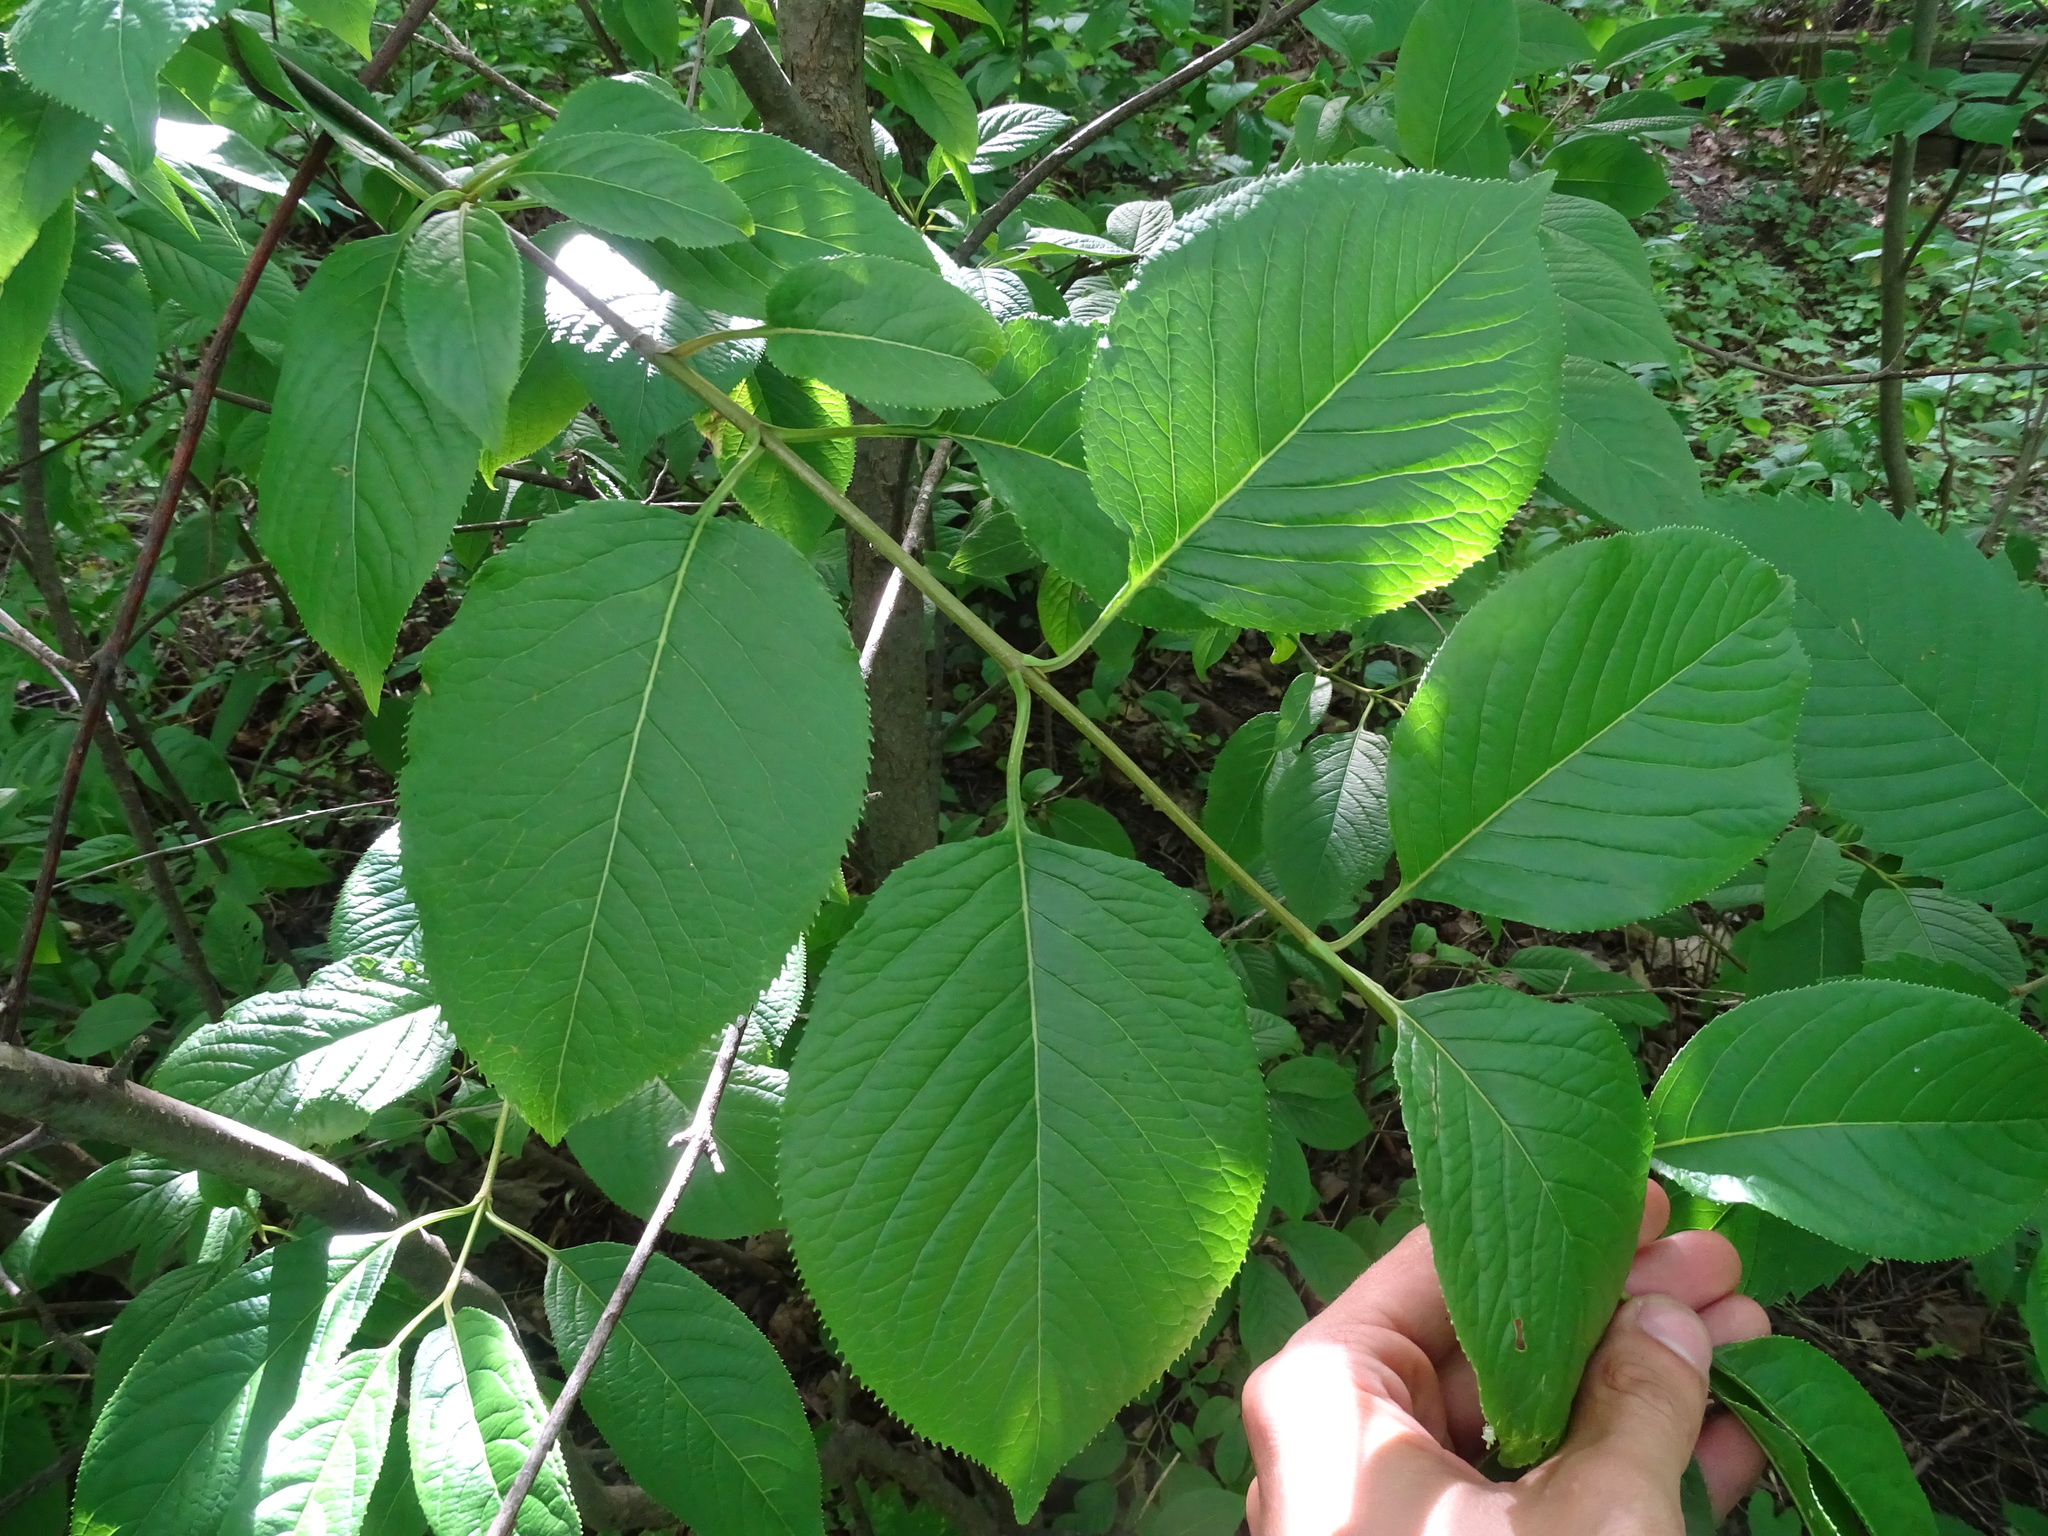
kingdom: Plantae
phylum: Tracheophyta
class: Magnoliopsida
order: Dipsacales
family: Viburnaceae
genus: Viburnum
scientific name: Viburnum lentago
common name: Black haw
